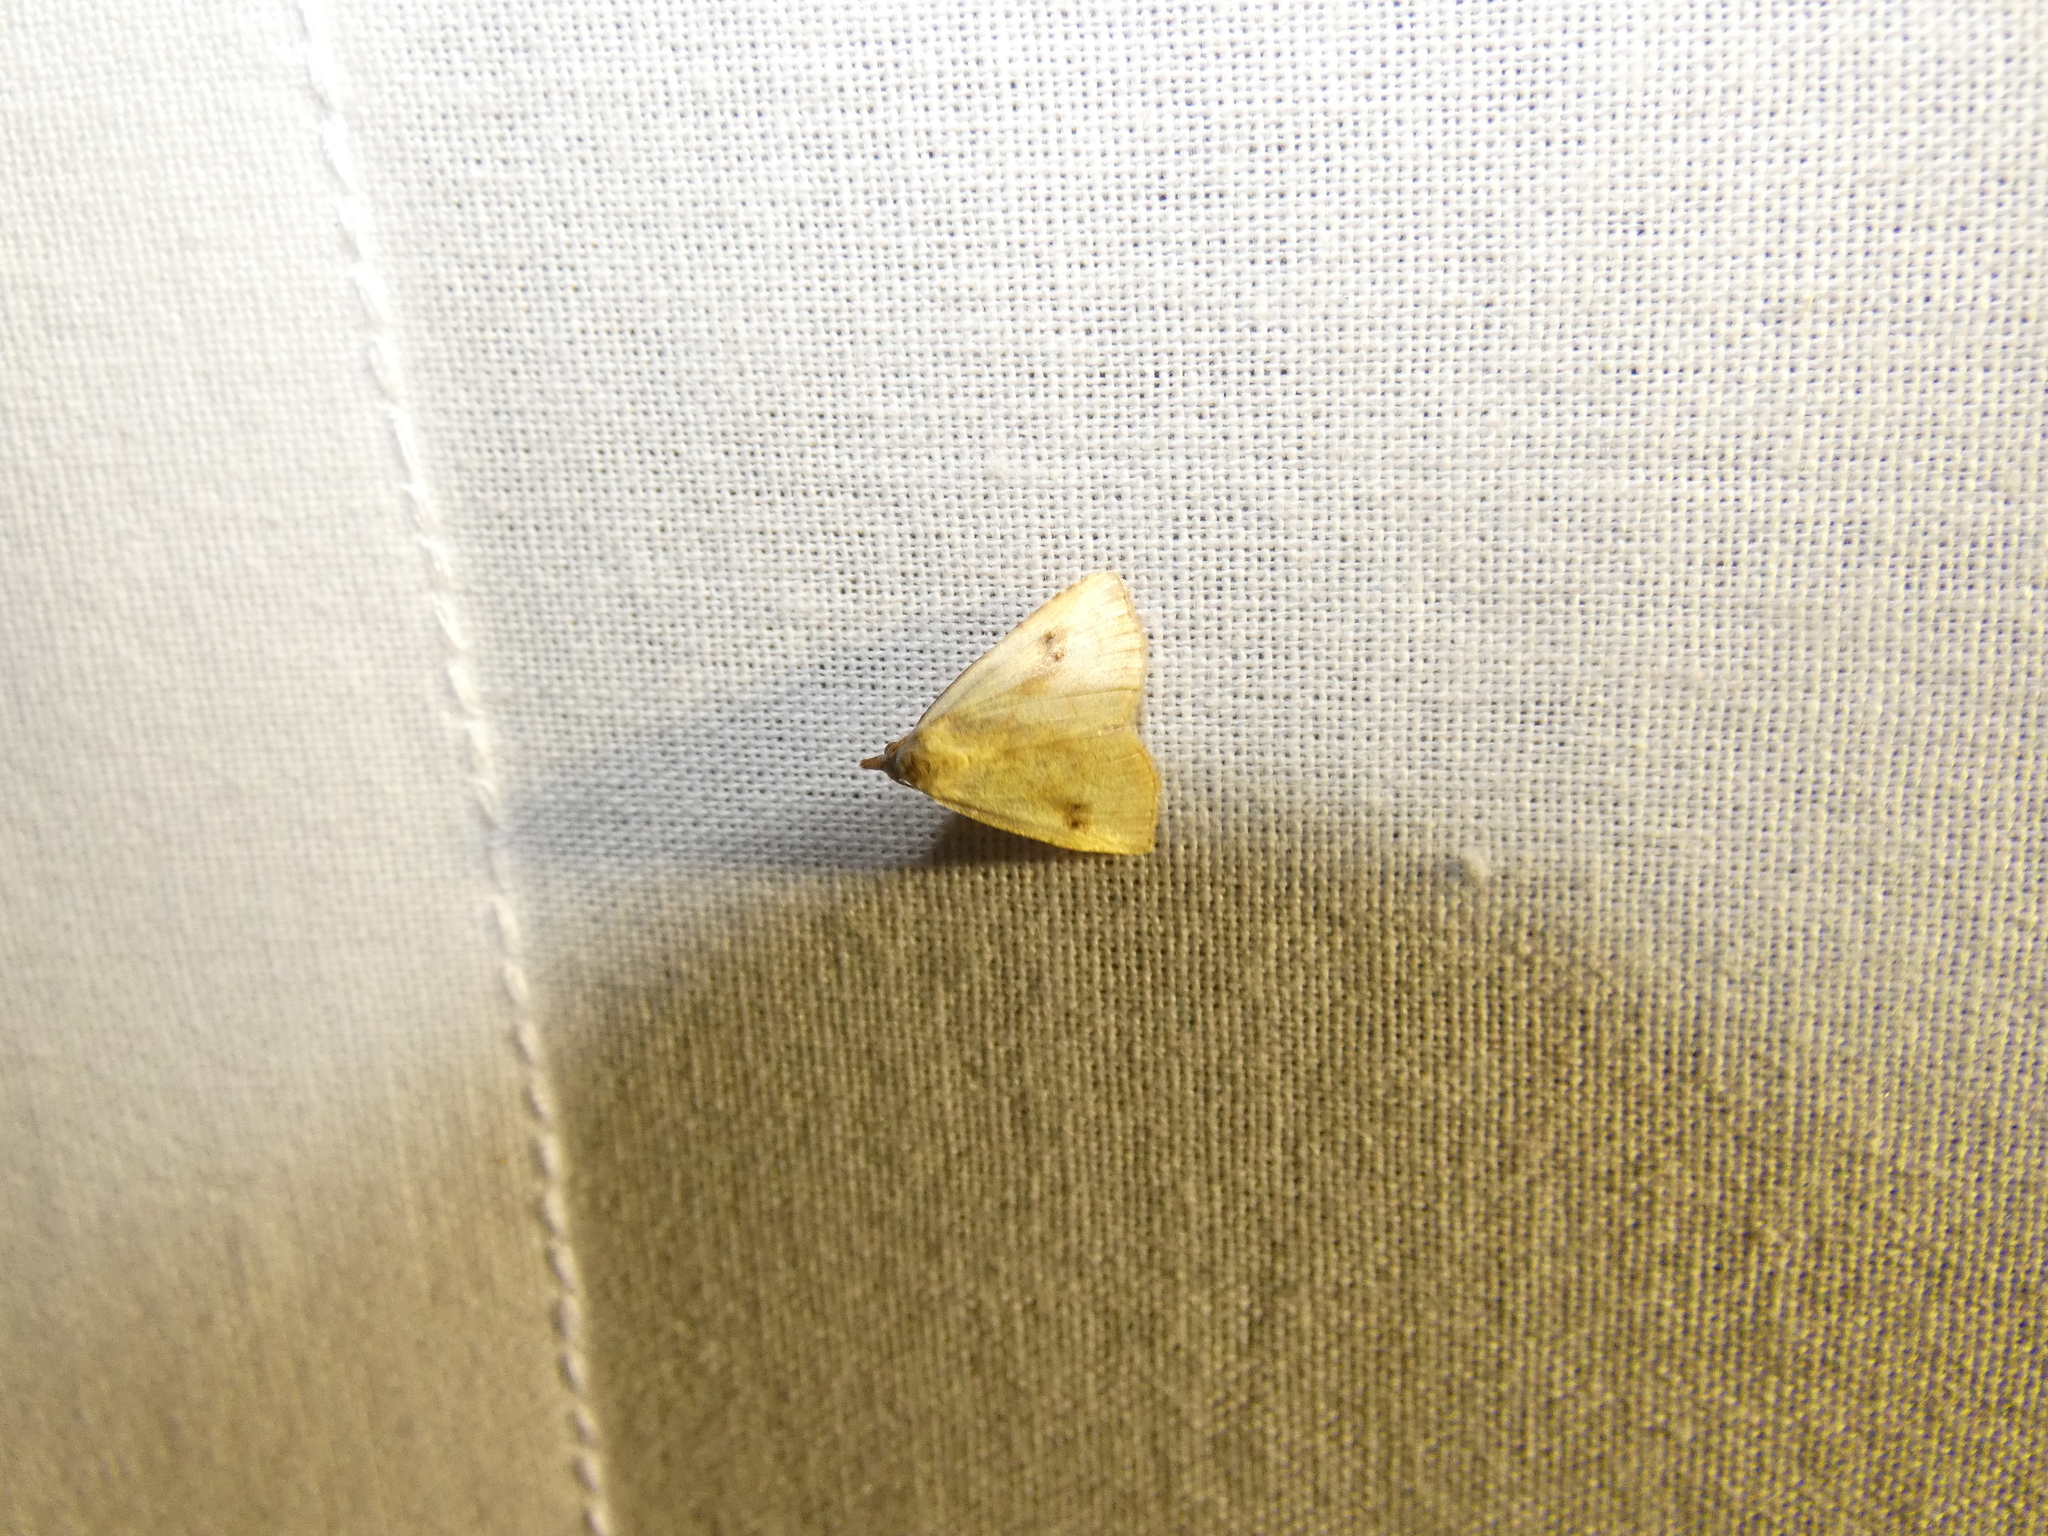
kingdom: Animalia
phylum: Arthropoda
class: Insecta
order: Lepidoptera
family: Erebidae
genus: Rivula
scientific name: Rivula sericealis
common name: Straw dot
